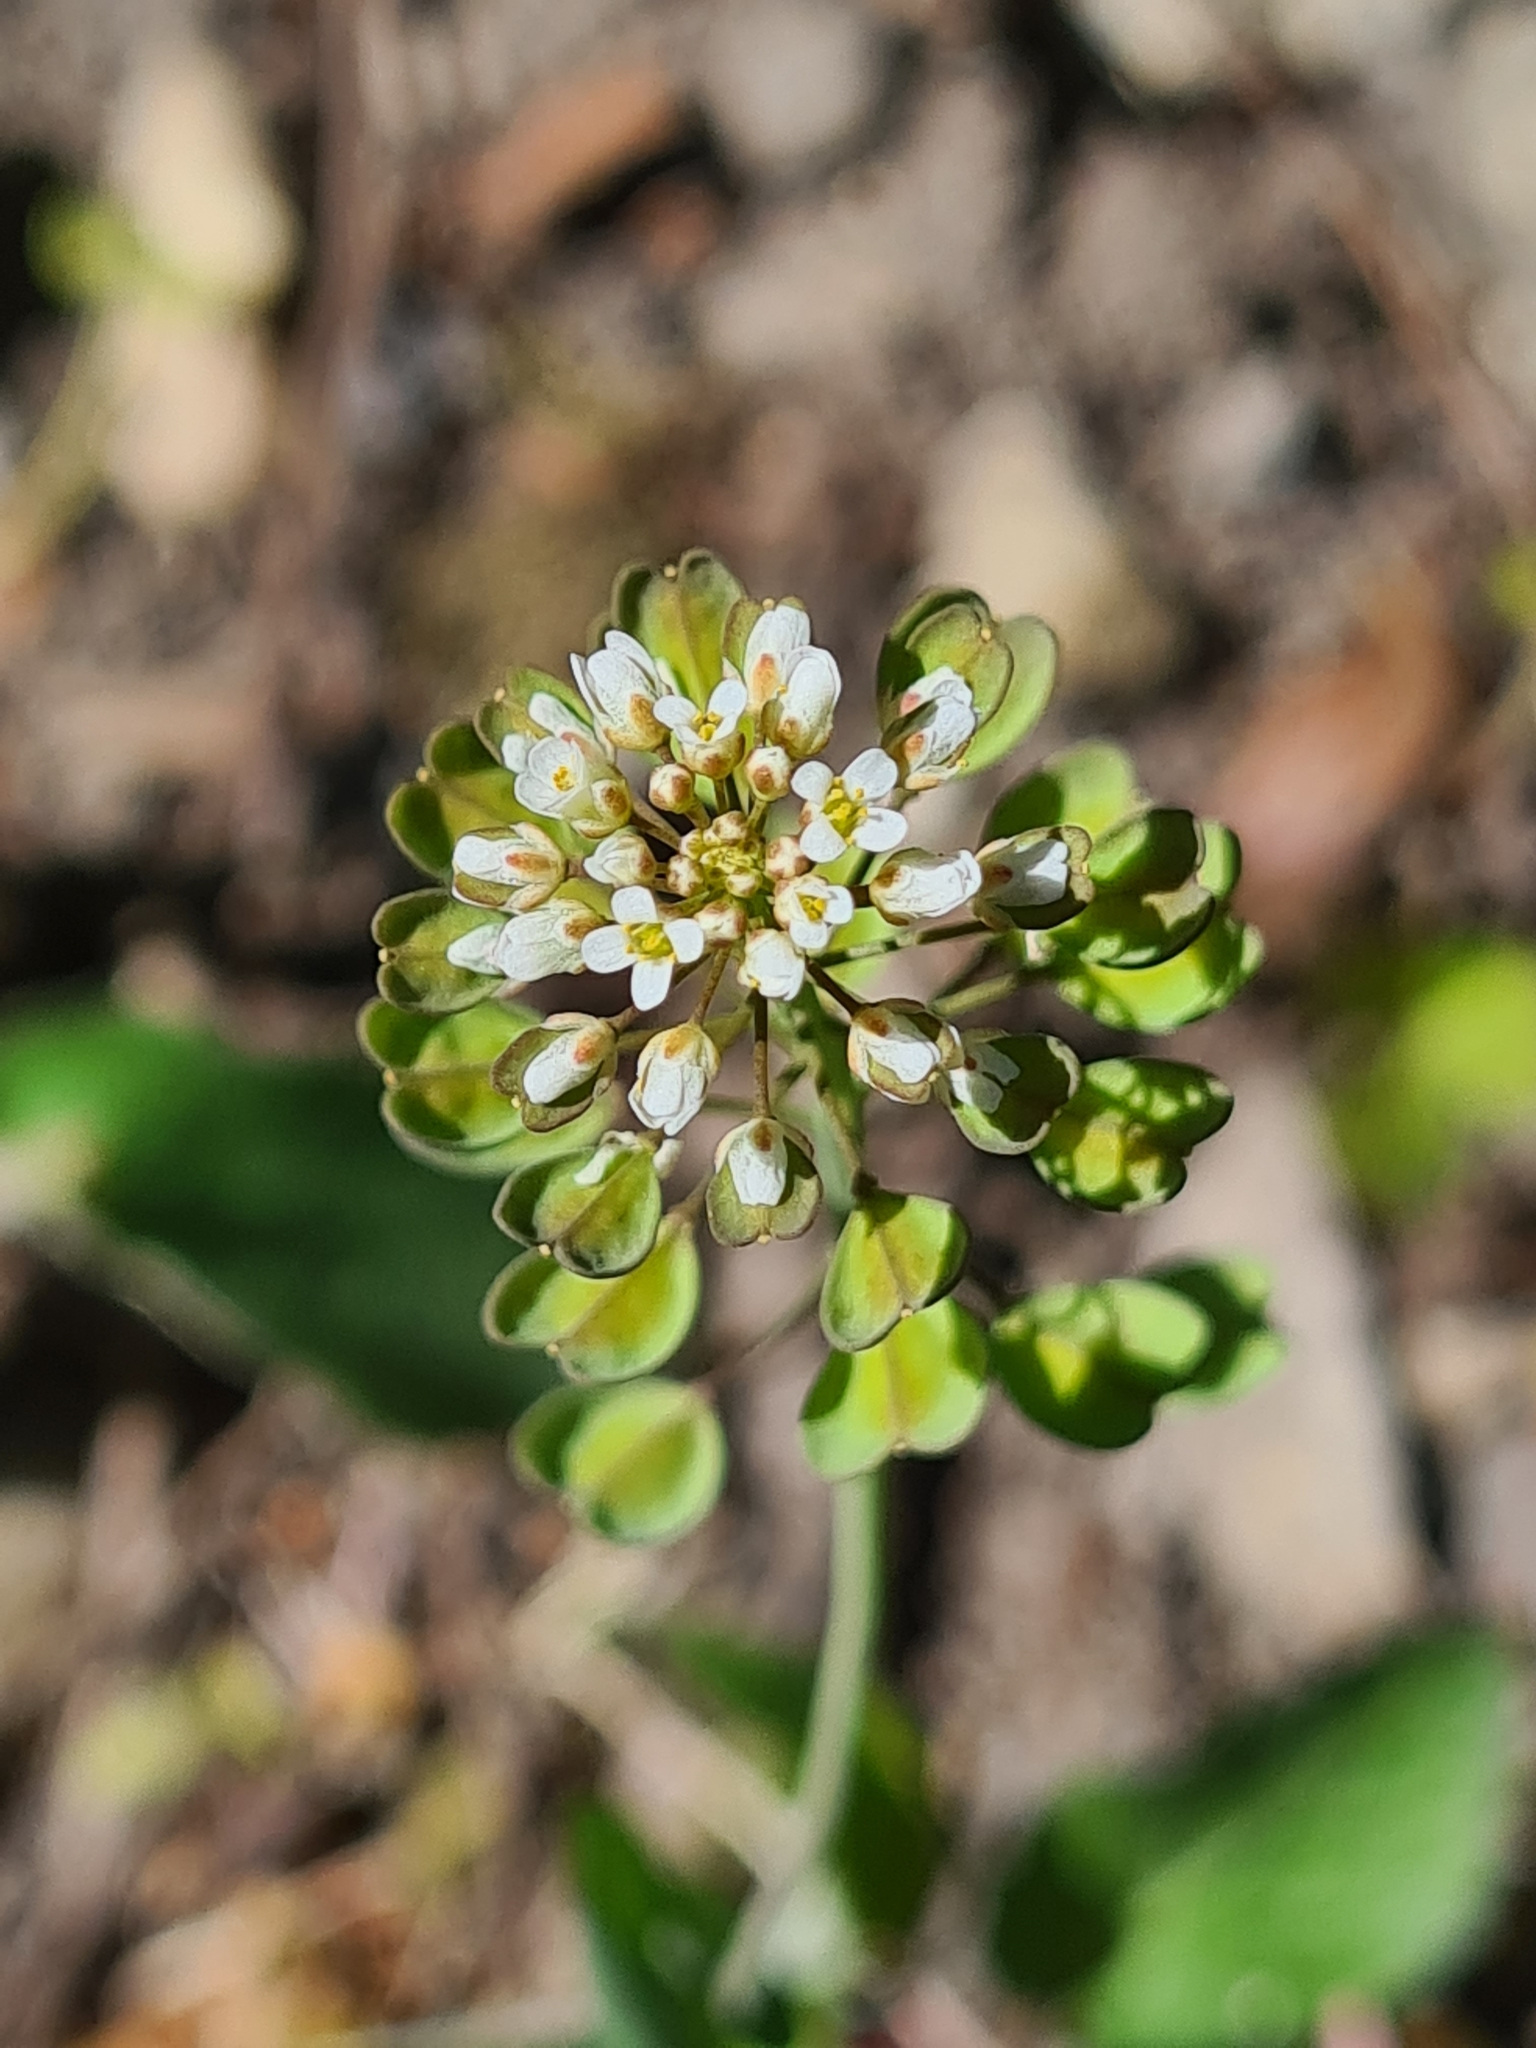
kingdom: Plantae
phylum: Tracheophyta
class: Magnoliopsida
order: Brassicales
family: Brassicaceae
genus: Noccaea
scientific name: Noccaea perfoliata
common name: Perfoliate pennycress
